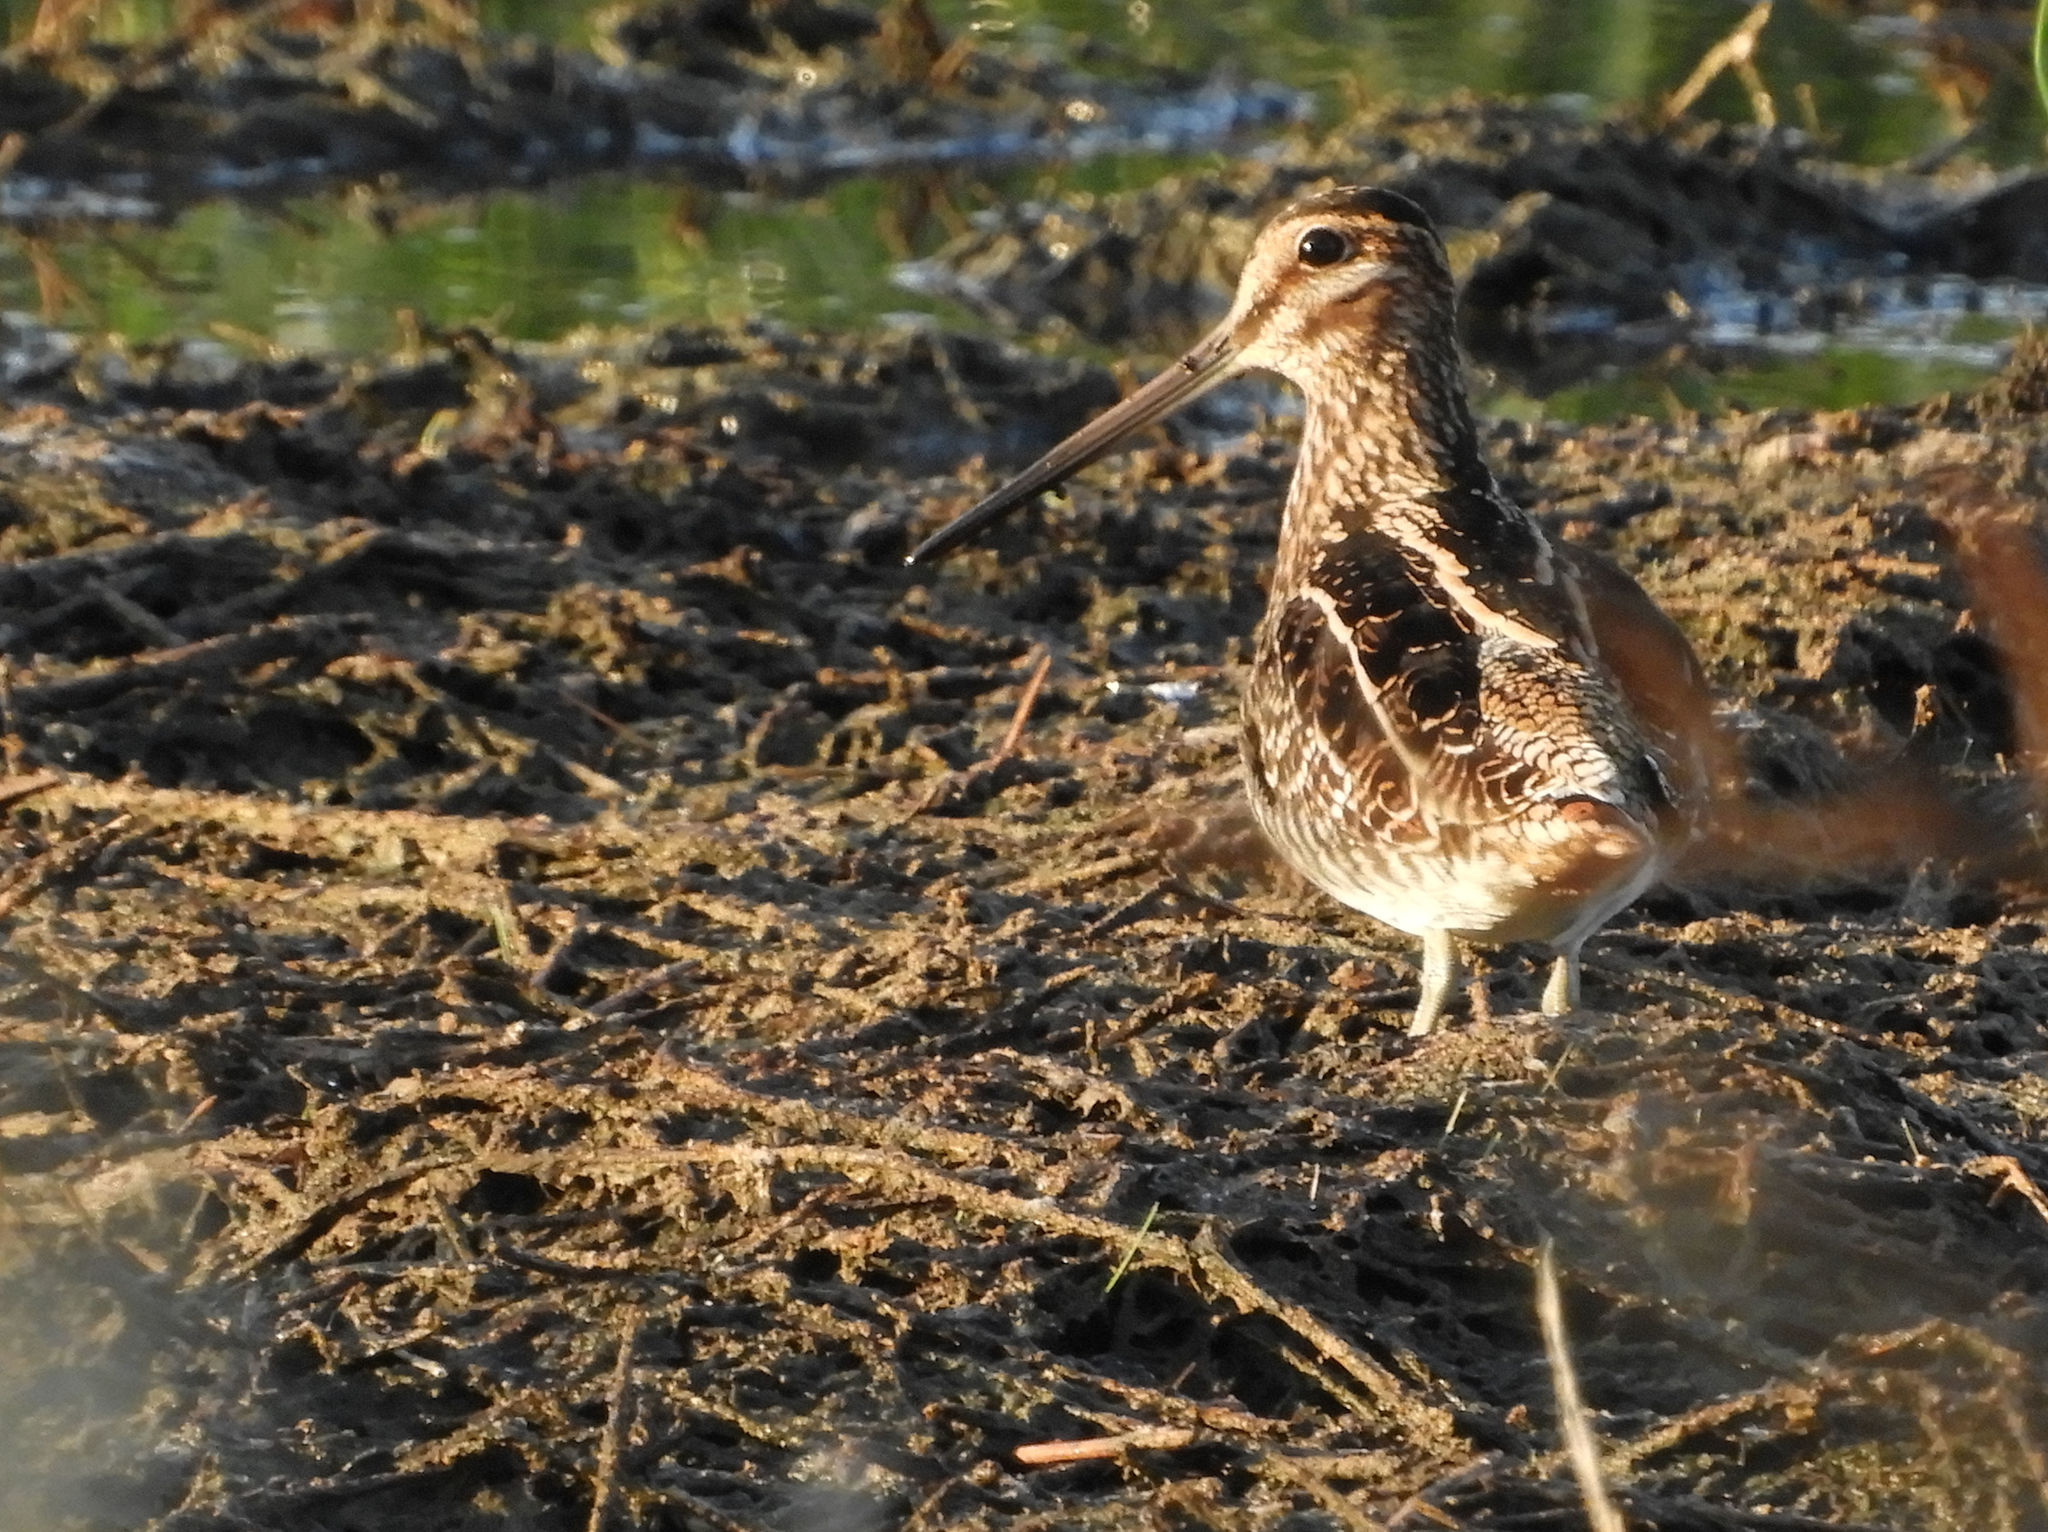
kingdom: Animalia
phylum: Chordata
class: Aves
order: Charadriiformes
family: Scolopacidae
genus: Gallinago
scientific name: Gallinago delicata
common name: Wilson's snipe
